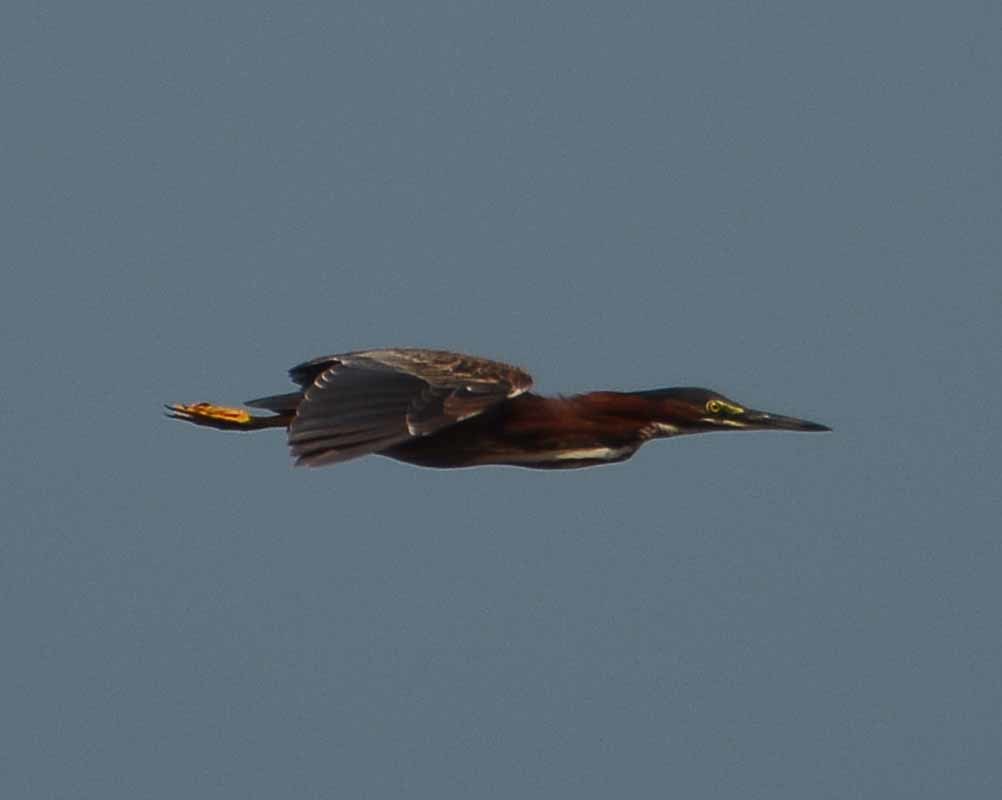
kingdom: Animalia
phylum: Chordata
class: Aves
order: Pelecaniformes
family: Ardeidae
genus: Butorides
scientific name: Butorides virescens
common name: Green heron
